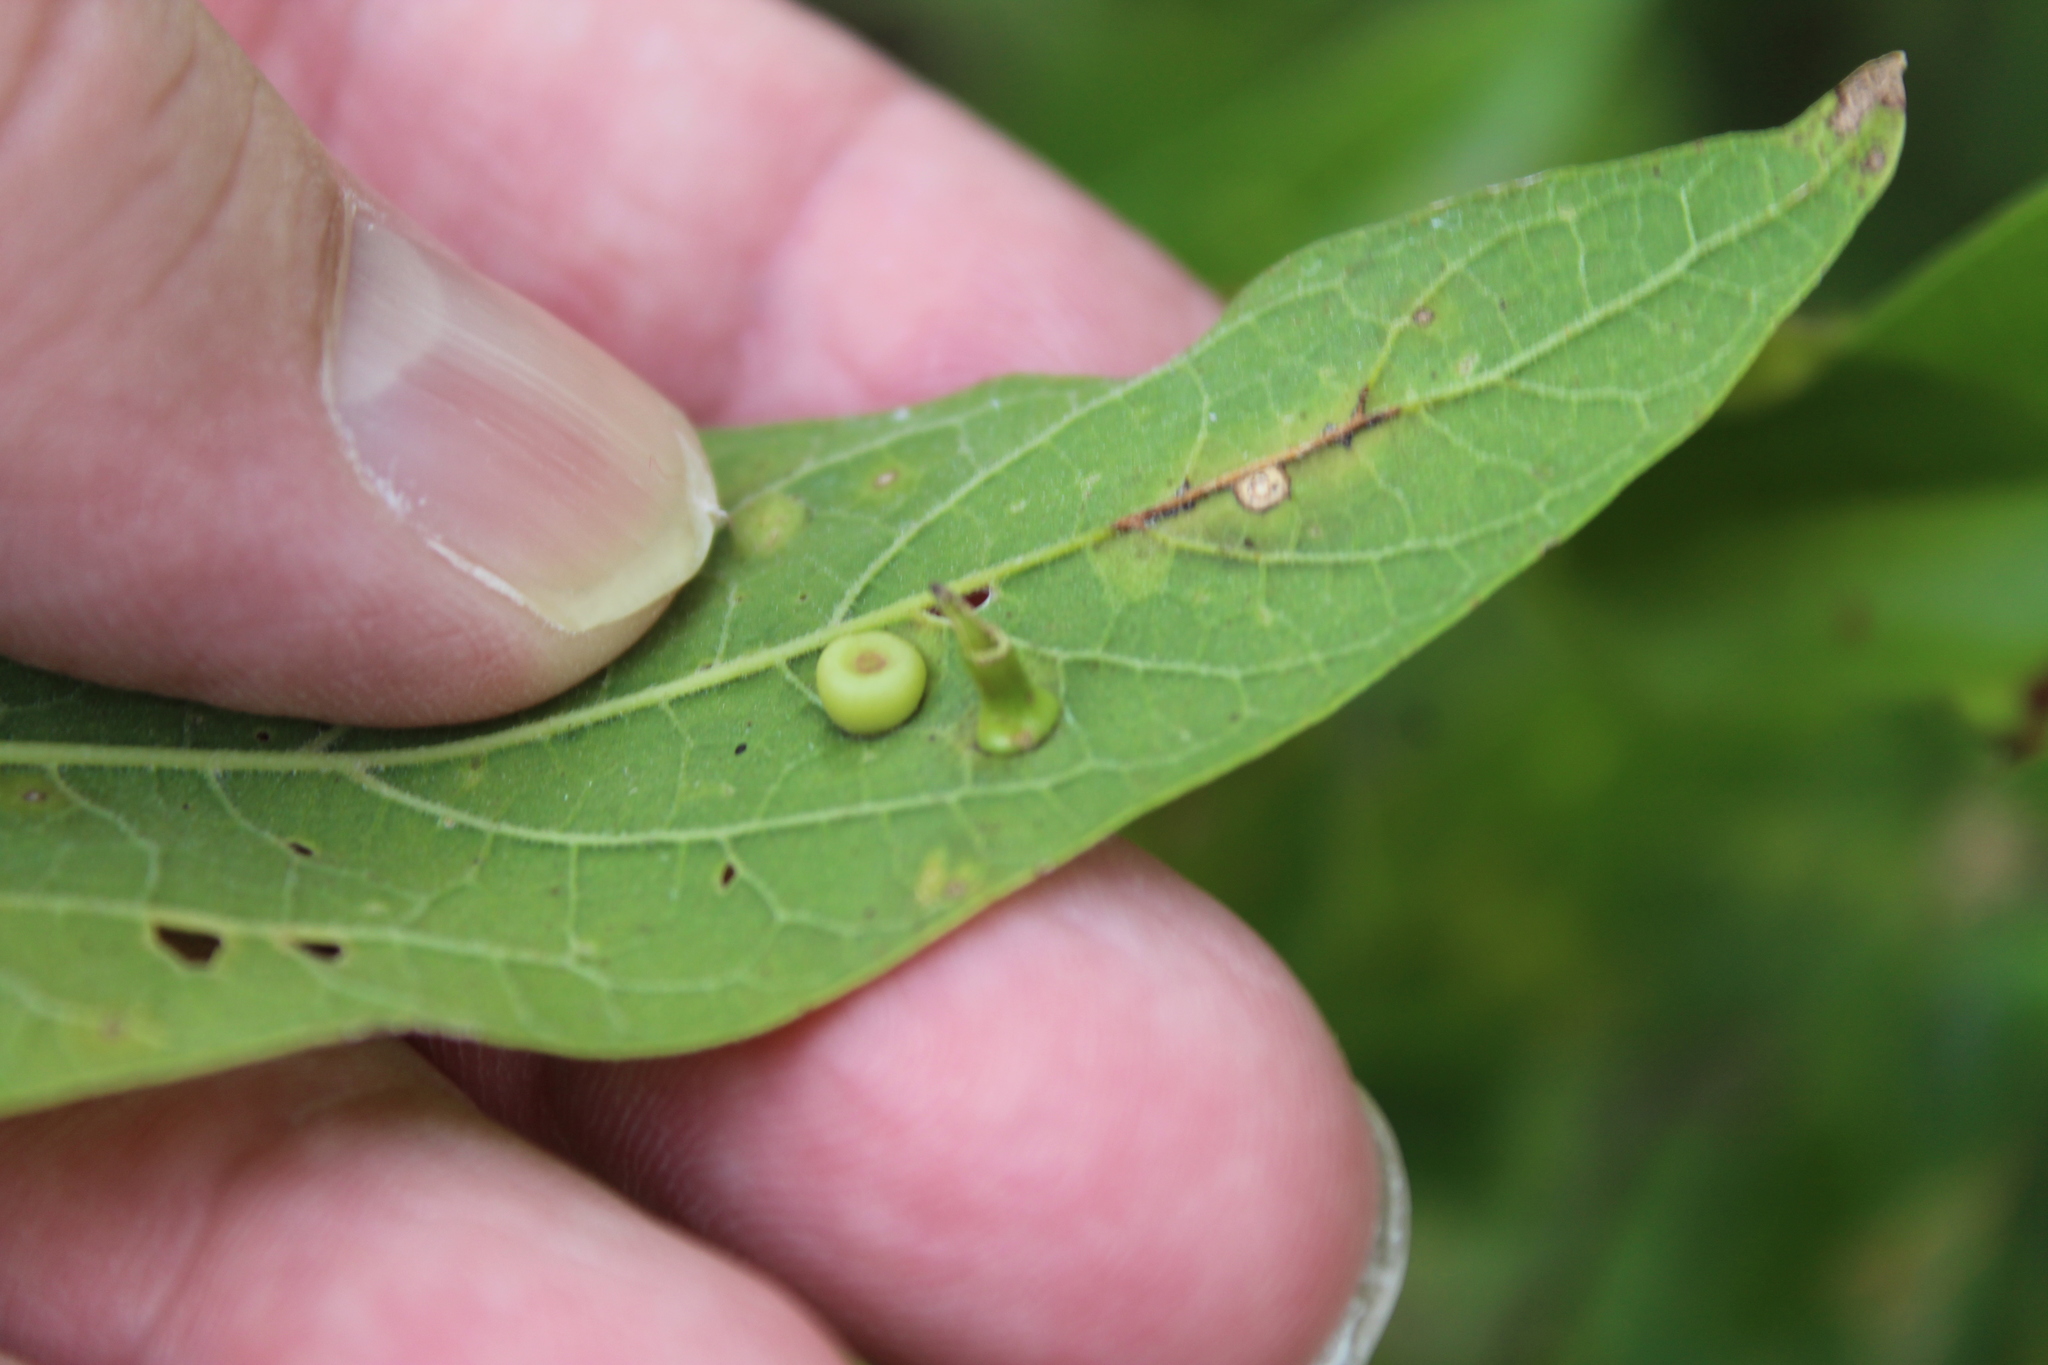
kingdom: Animalia
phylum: Arthropoda
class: Insecta
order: Diptera
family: Cecidomyiidae
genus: Celticecis
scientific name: Celticecis subulata
